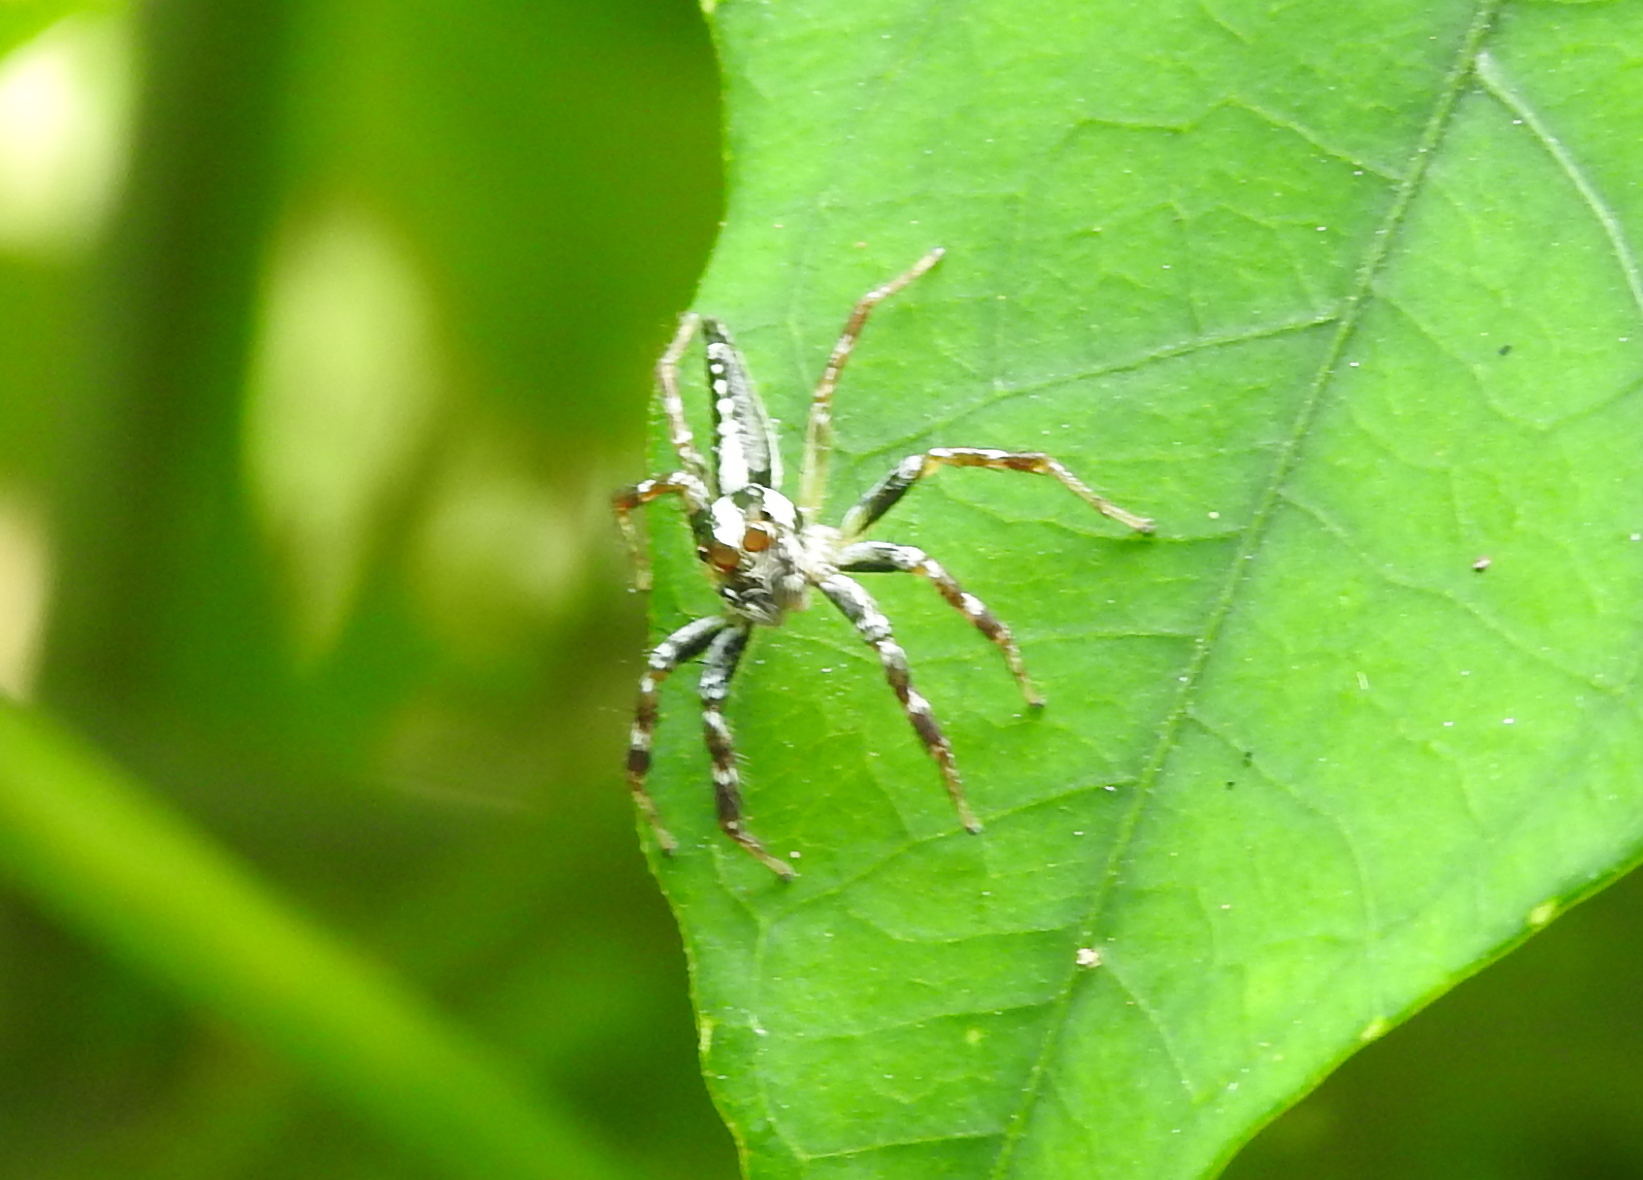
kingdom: Animalia
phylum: Arthropoda
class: Arachnida
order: Araneae
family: Salticidae
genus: Telamonia
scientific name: Telamonia festiva
